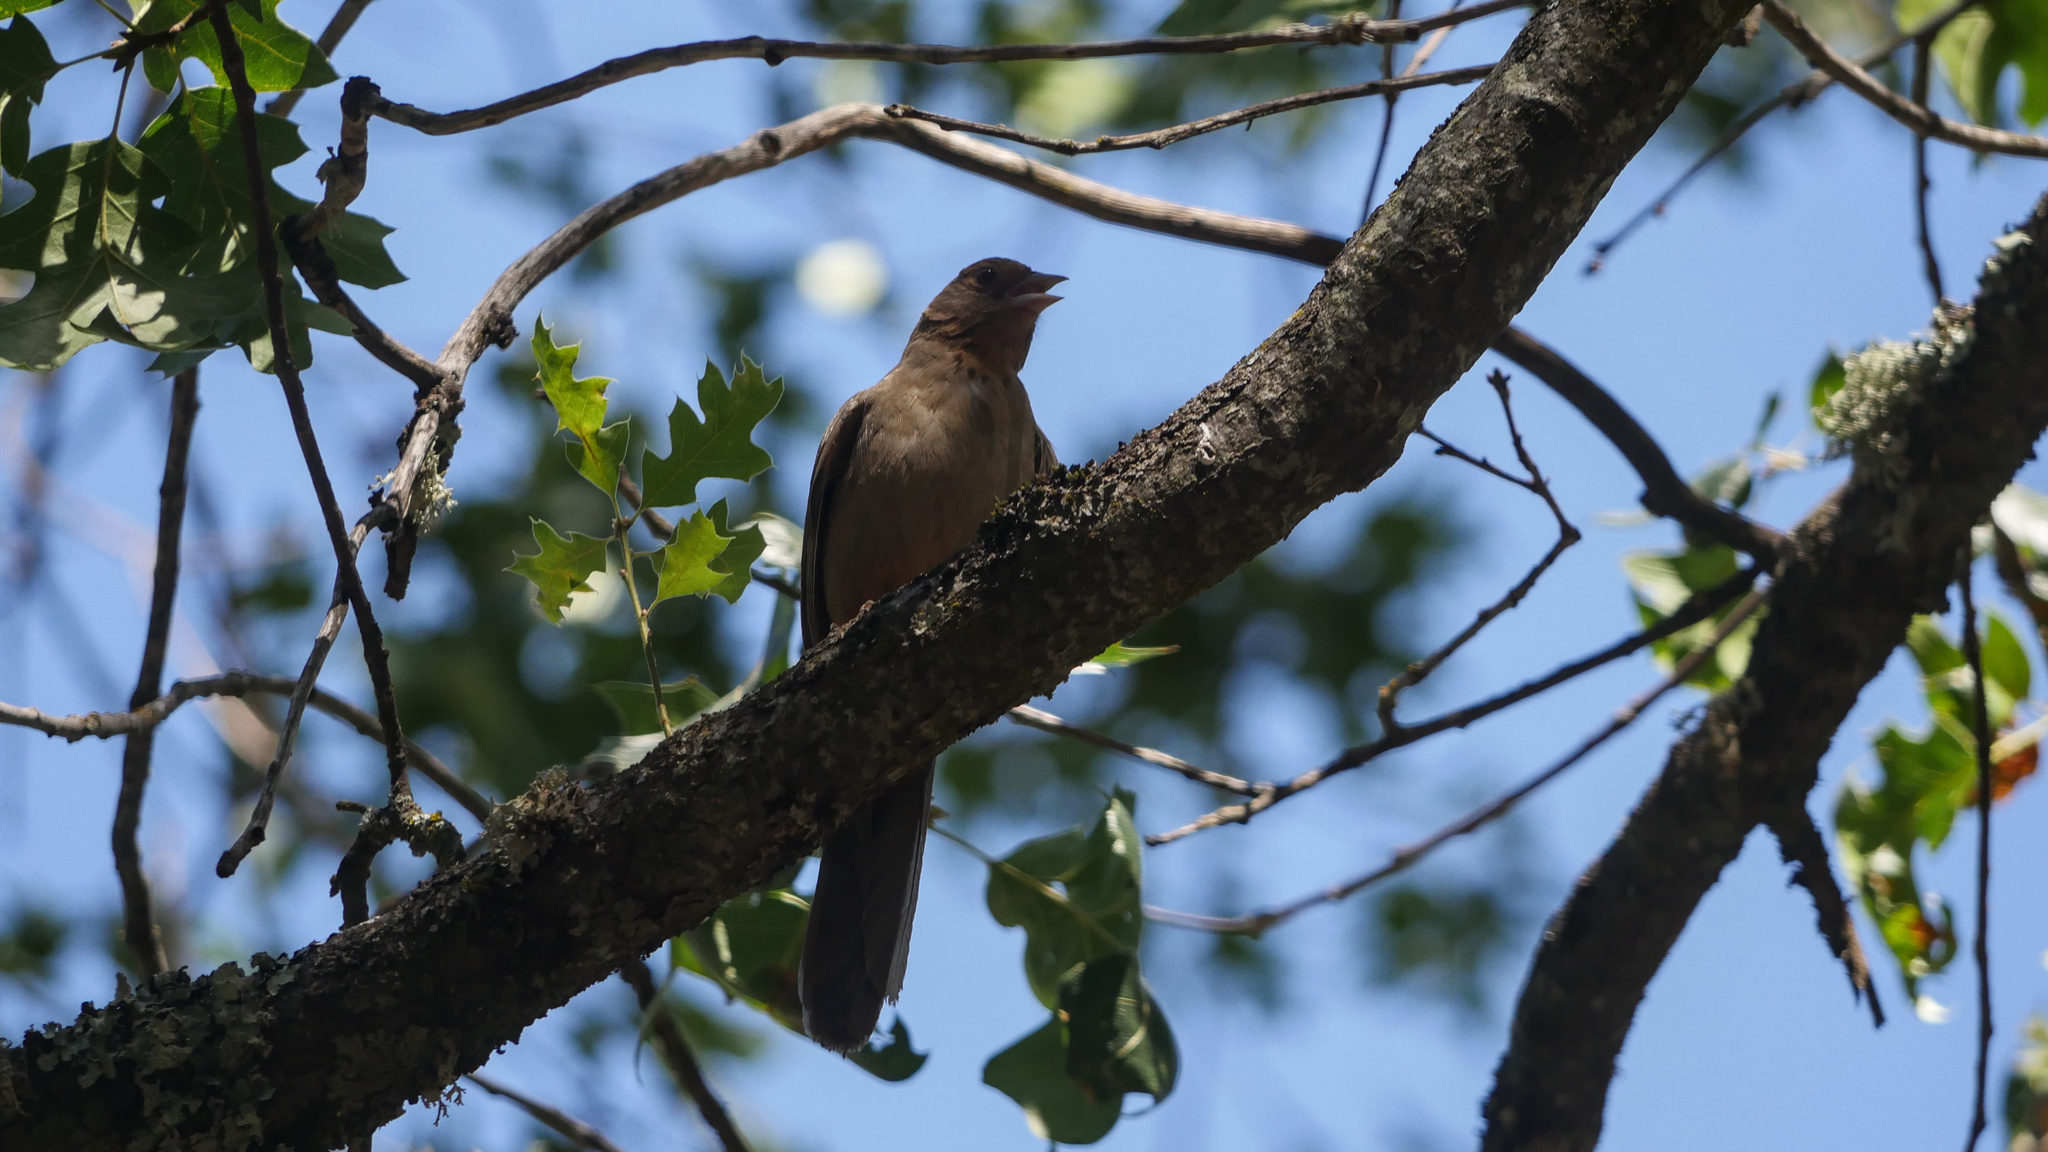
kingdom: Animalia
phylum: Chordata
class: Aves
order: Passeriformes
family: Passerellidae
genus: Melozone
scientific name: Melozone crissalis
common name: California towhee
